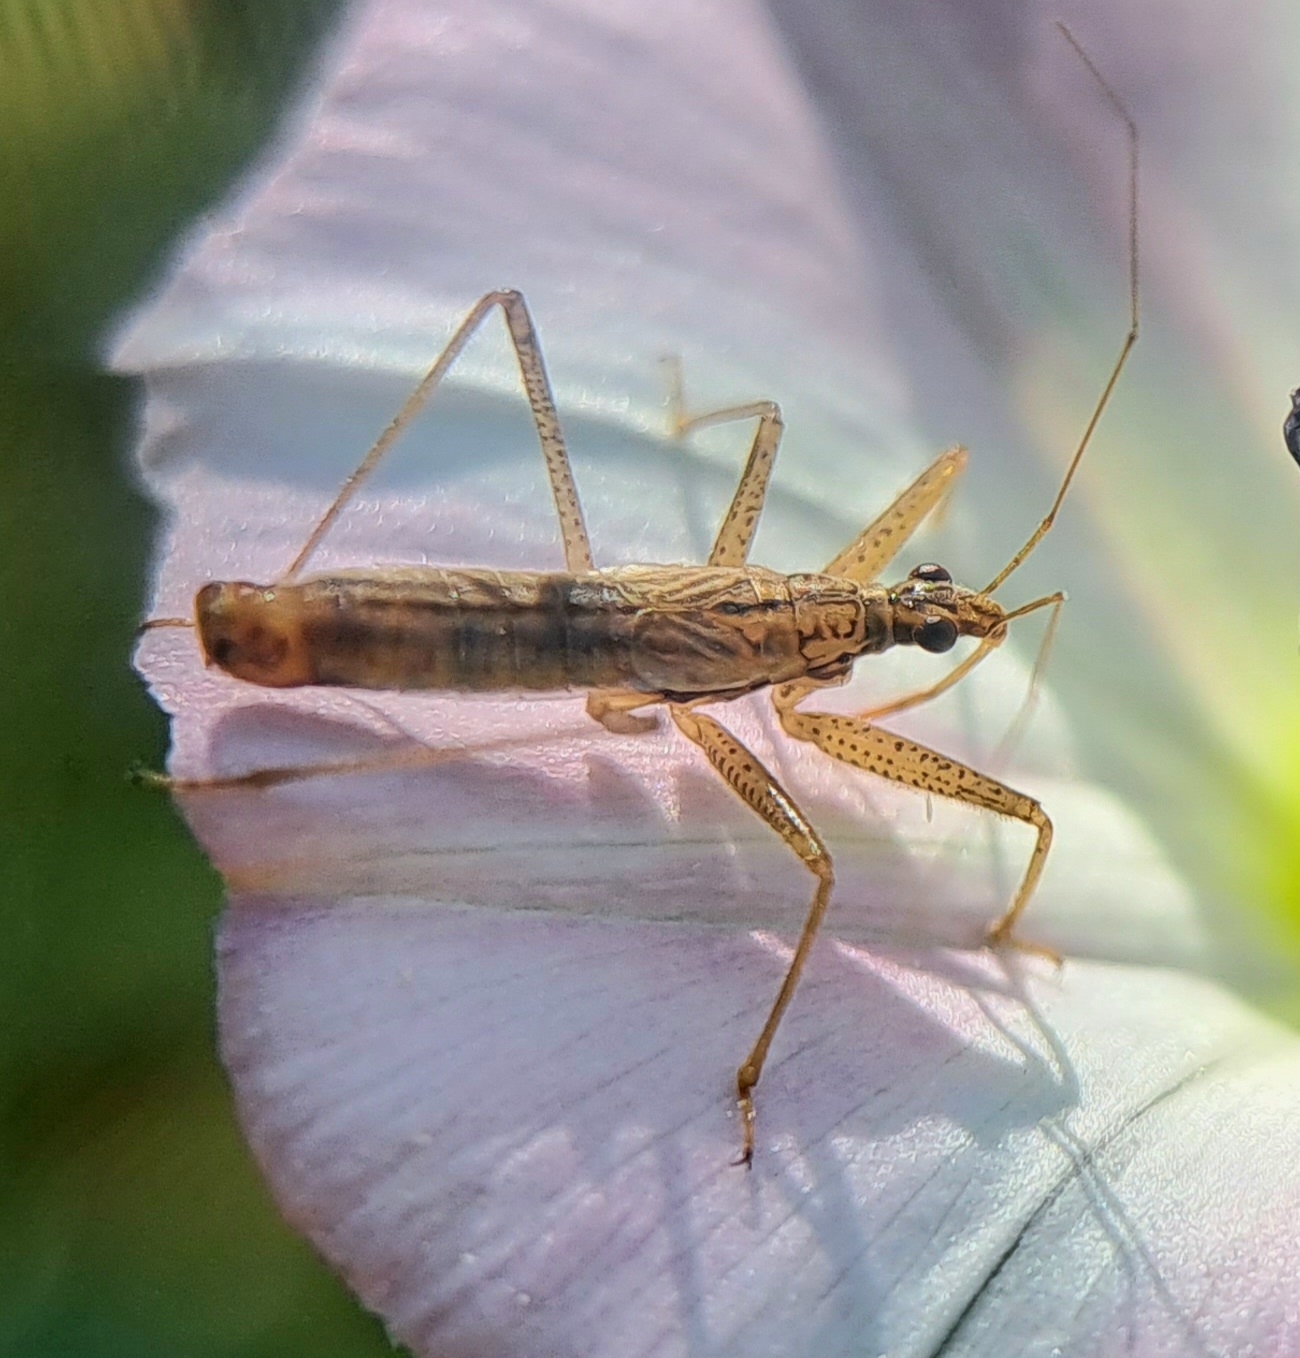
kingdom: Animalia
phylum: Arthropoda
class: Insecta
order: Hemiptera
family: Nabidae
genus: Nabis
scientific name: Nabis limbatus
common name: Marsh damselbug
